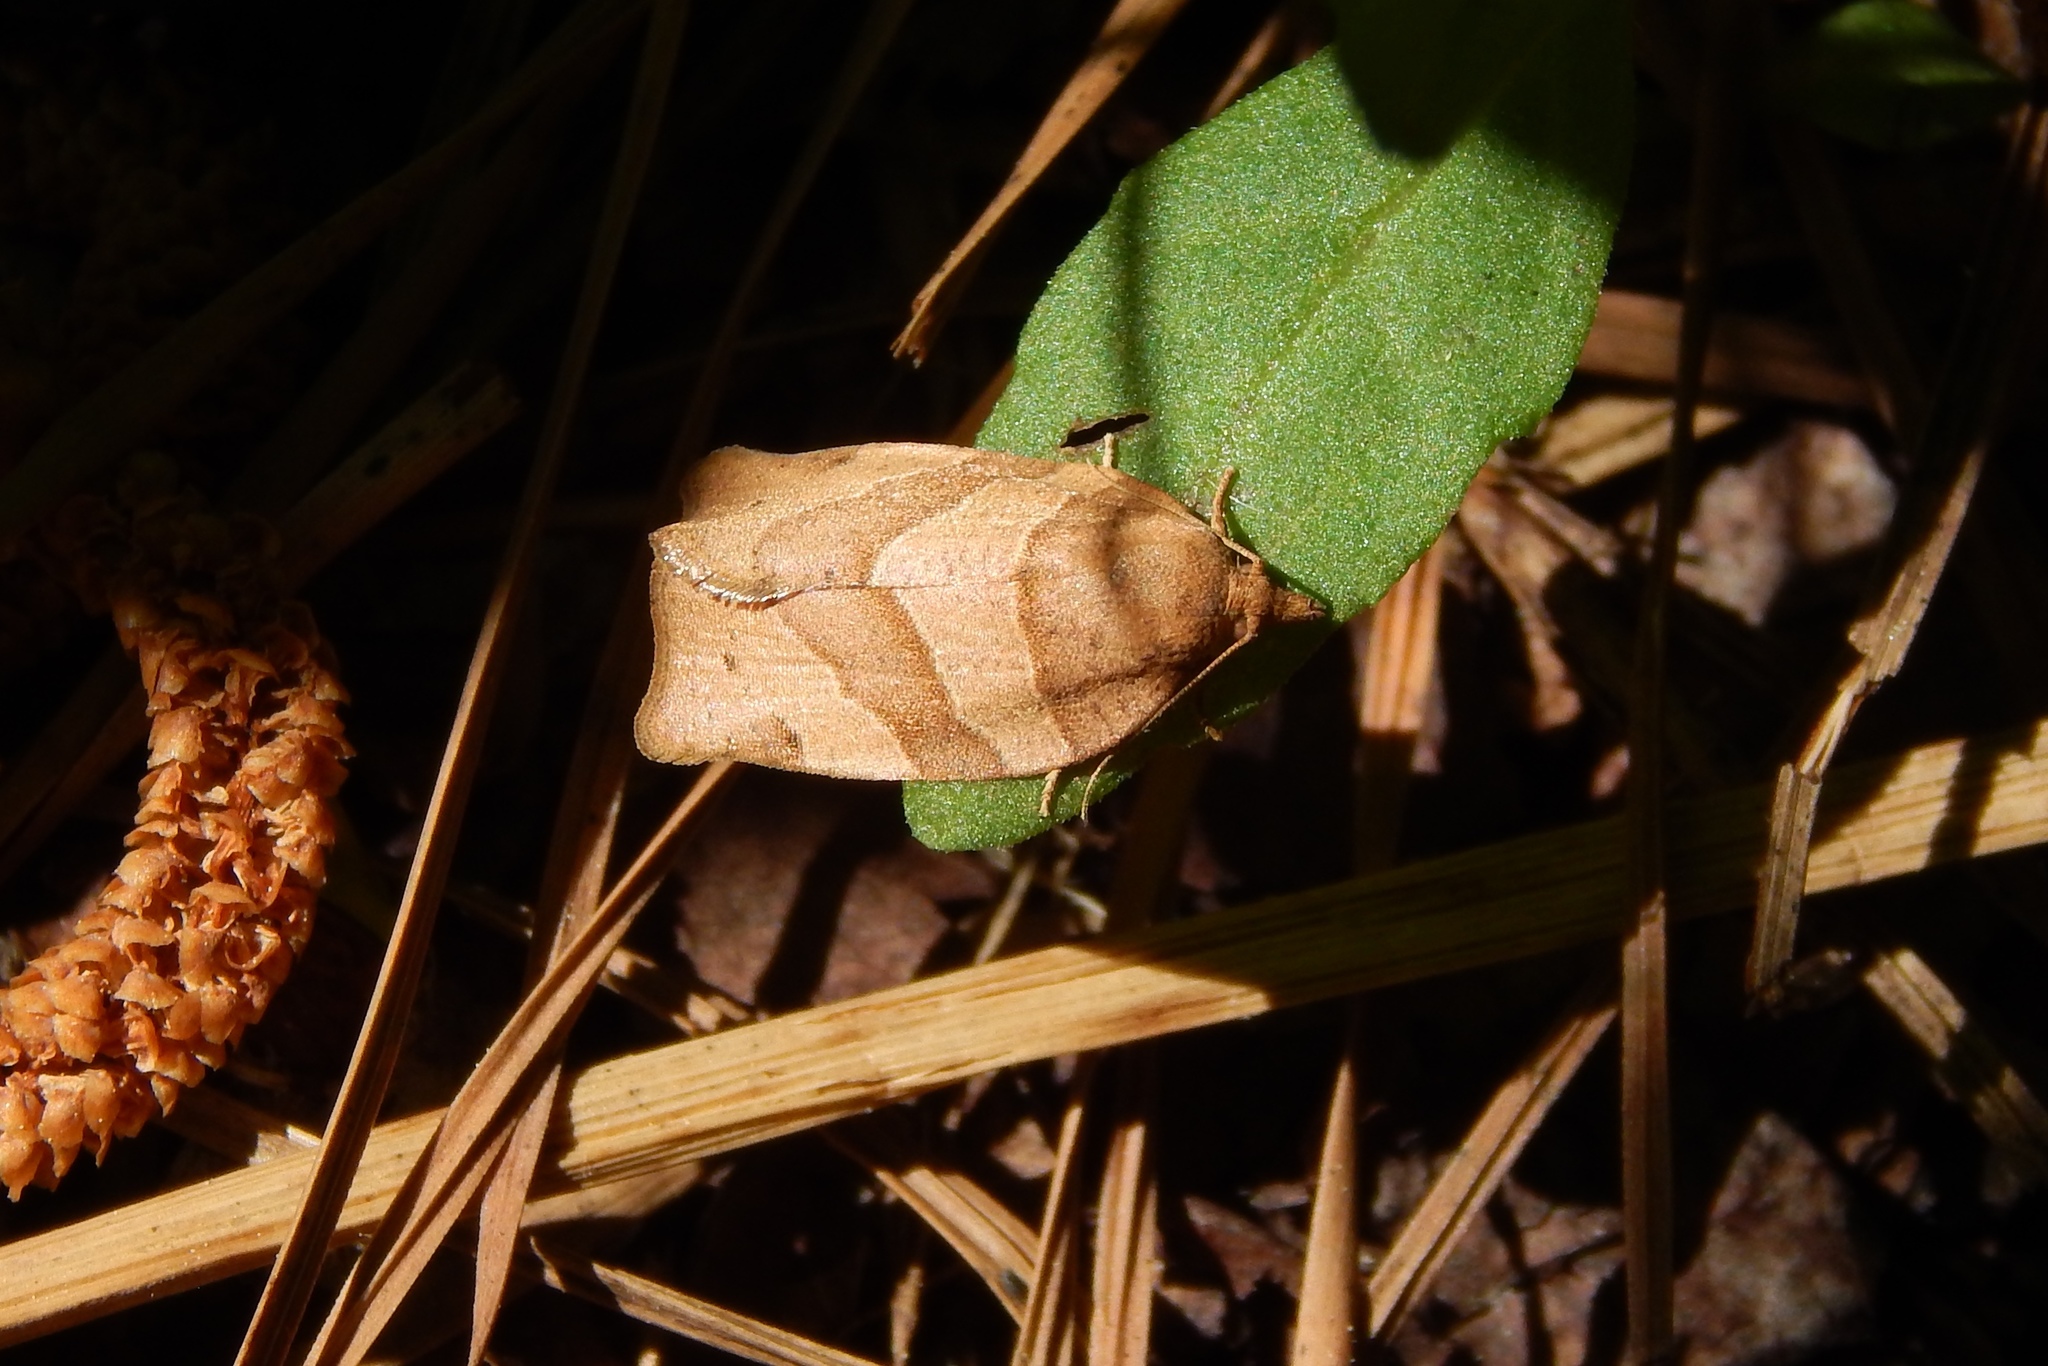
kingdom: Animalia
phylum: Arthropoda
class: Insecta
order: Lepidoptera
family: Tortricidae
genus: Pandemis
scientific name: Pandemis lamprosana
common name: Woodgrain leafroller moth
